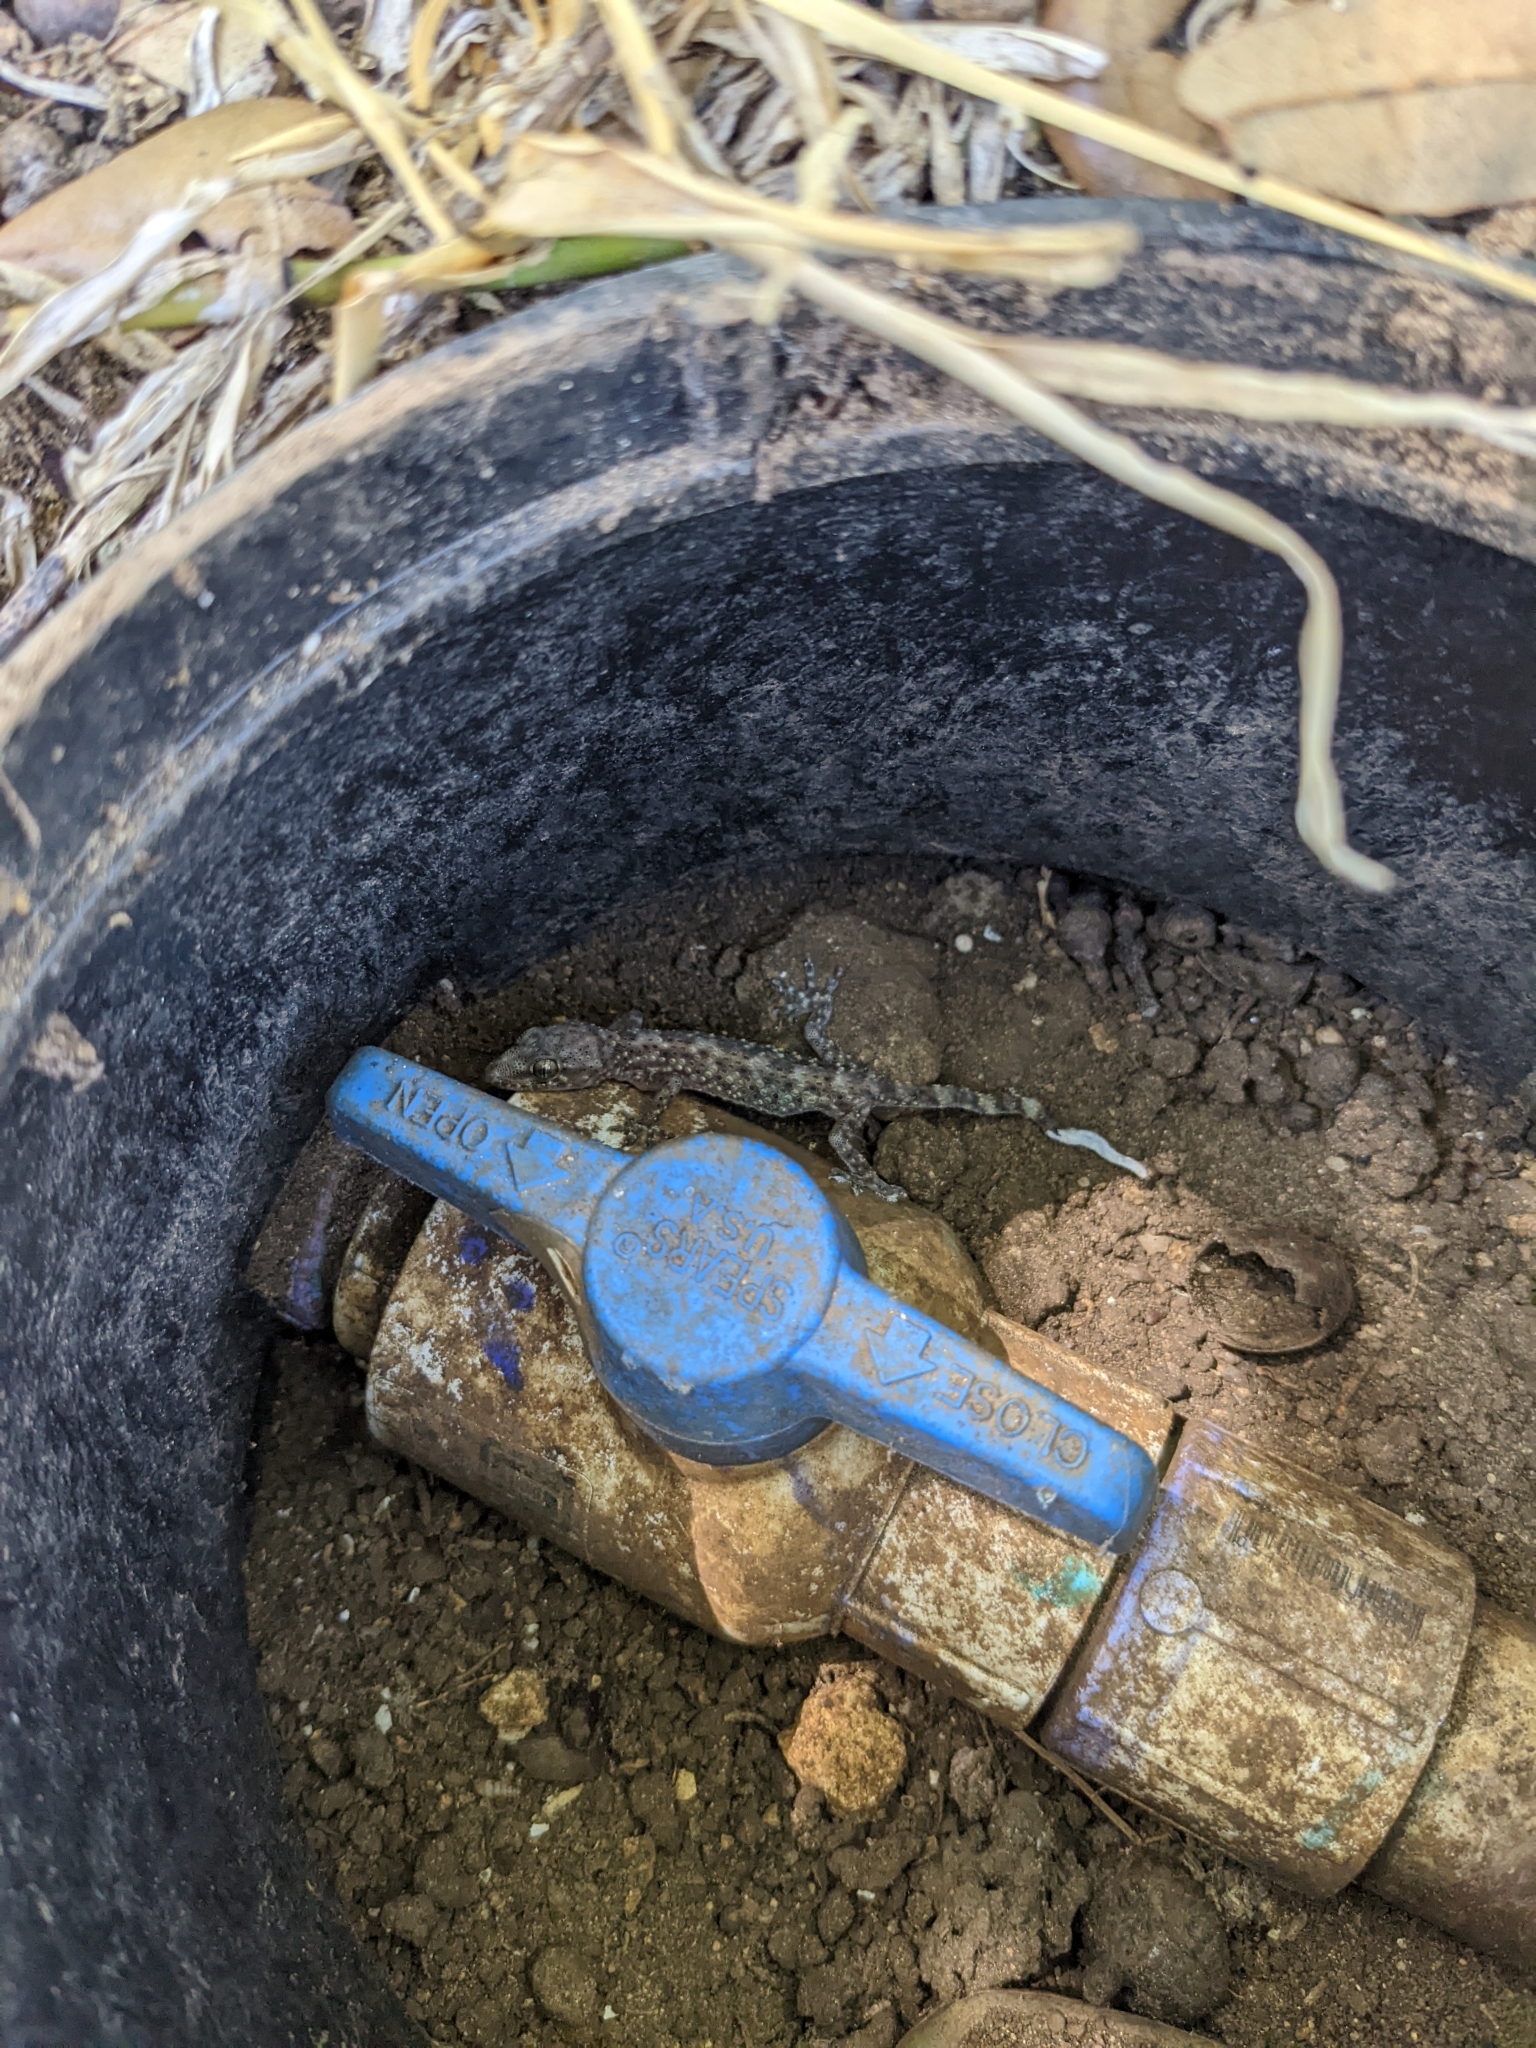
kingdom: Animalia
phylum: Chordata
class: Squamata
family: Gekkonidae
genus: Hemidactylus
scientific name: Hemidactylus turcicus
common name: Turkish gecko
